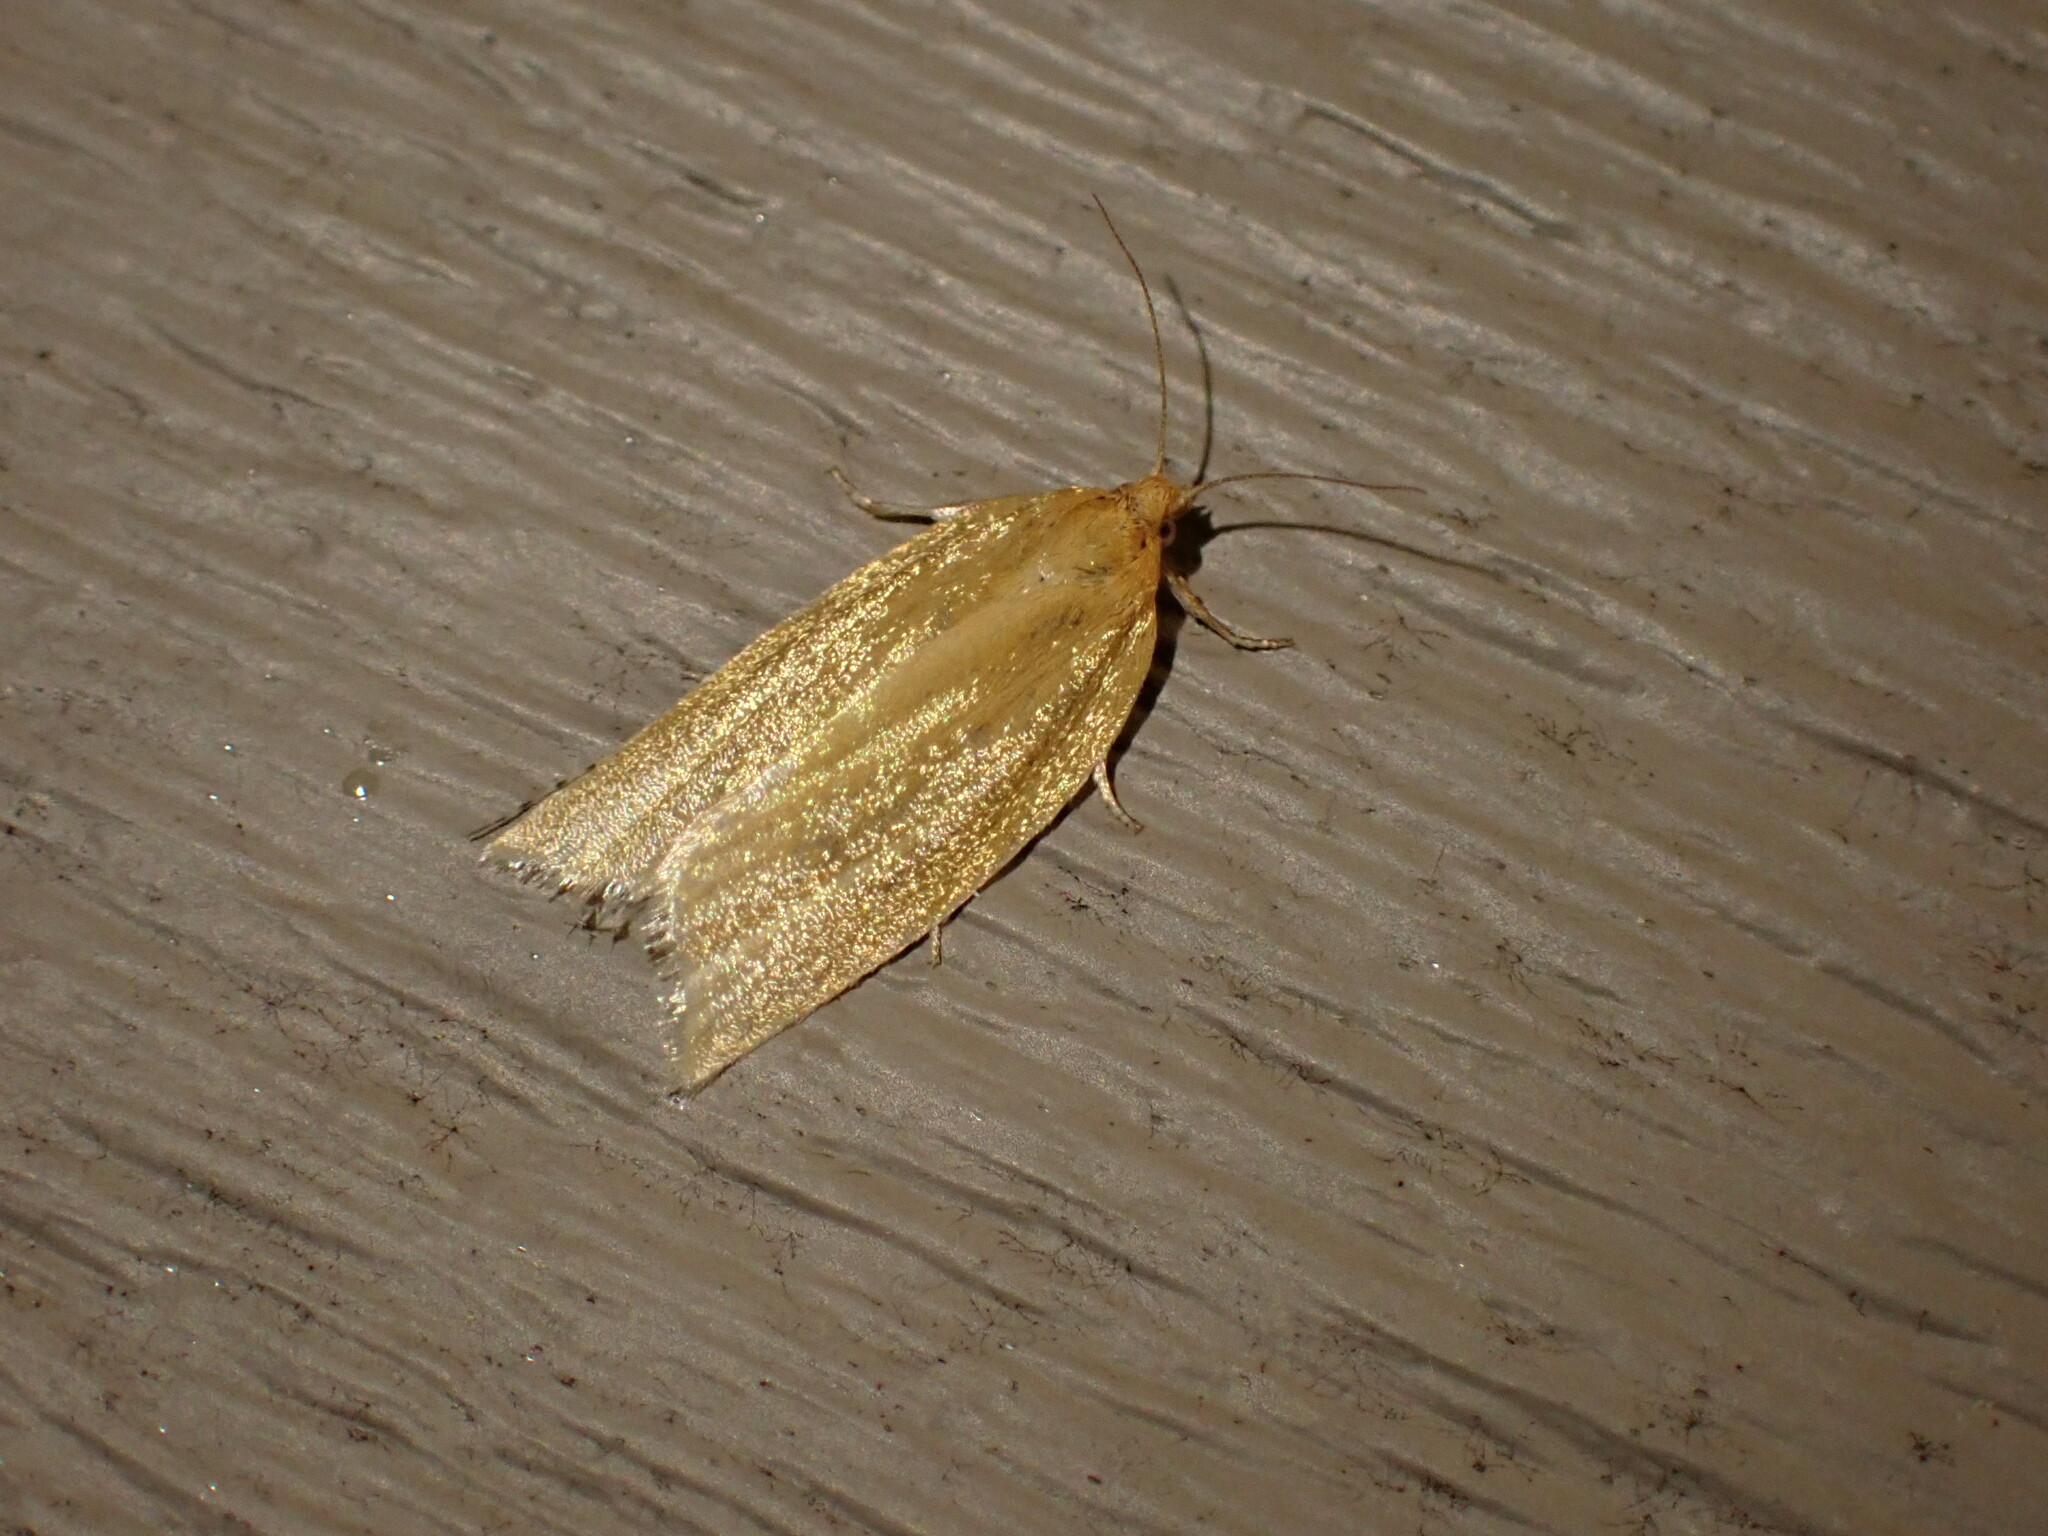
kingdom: Animalia
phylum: Arthropoda
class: Insecta
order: Lepidoptera
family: Tortricidae
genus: Clepsis
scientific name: Clepsis clemensiana
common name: Clemens' clepsis moth
